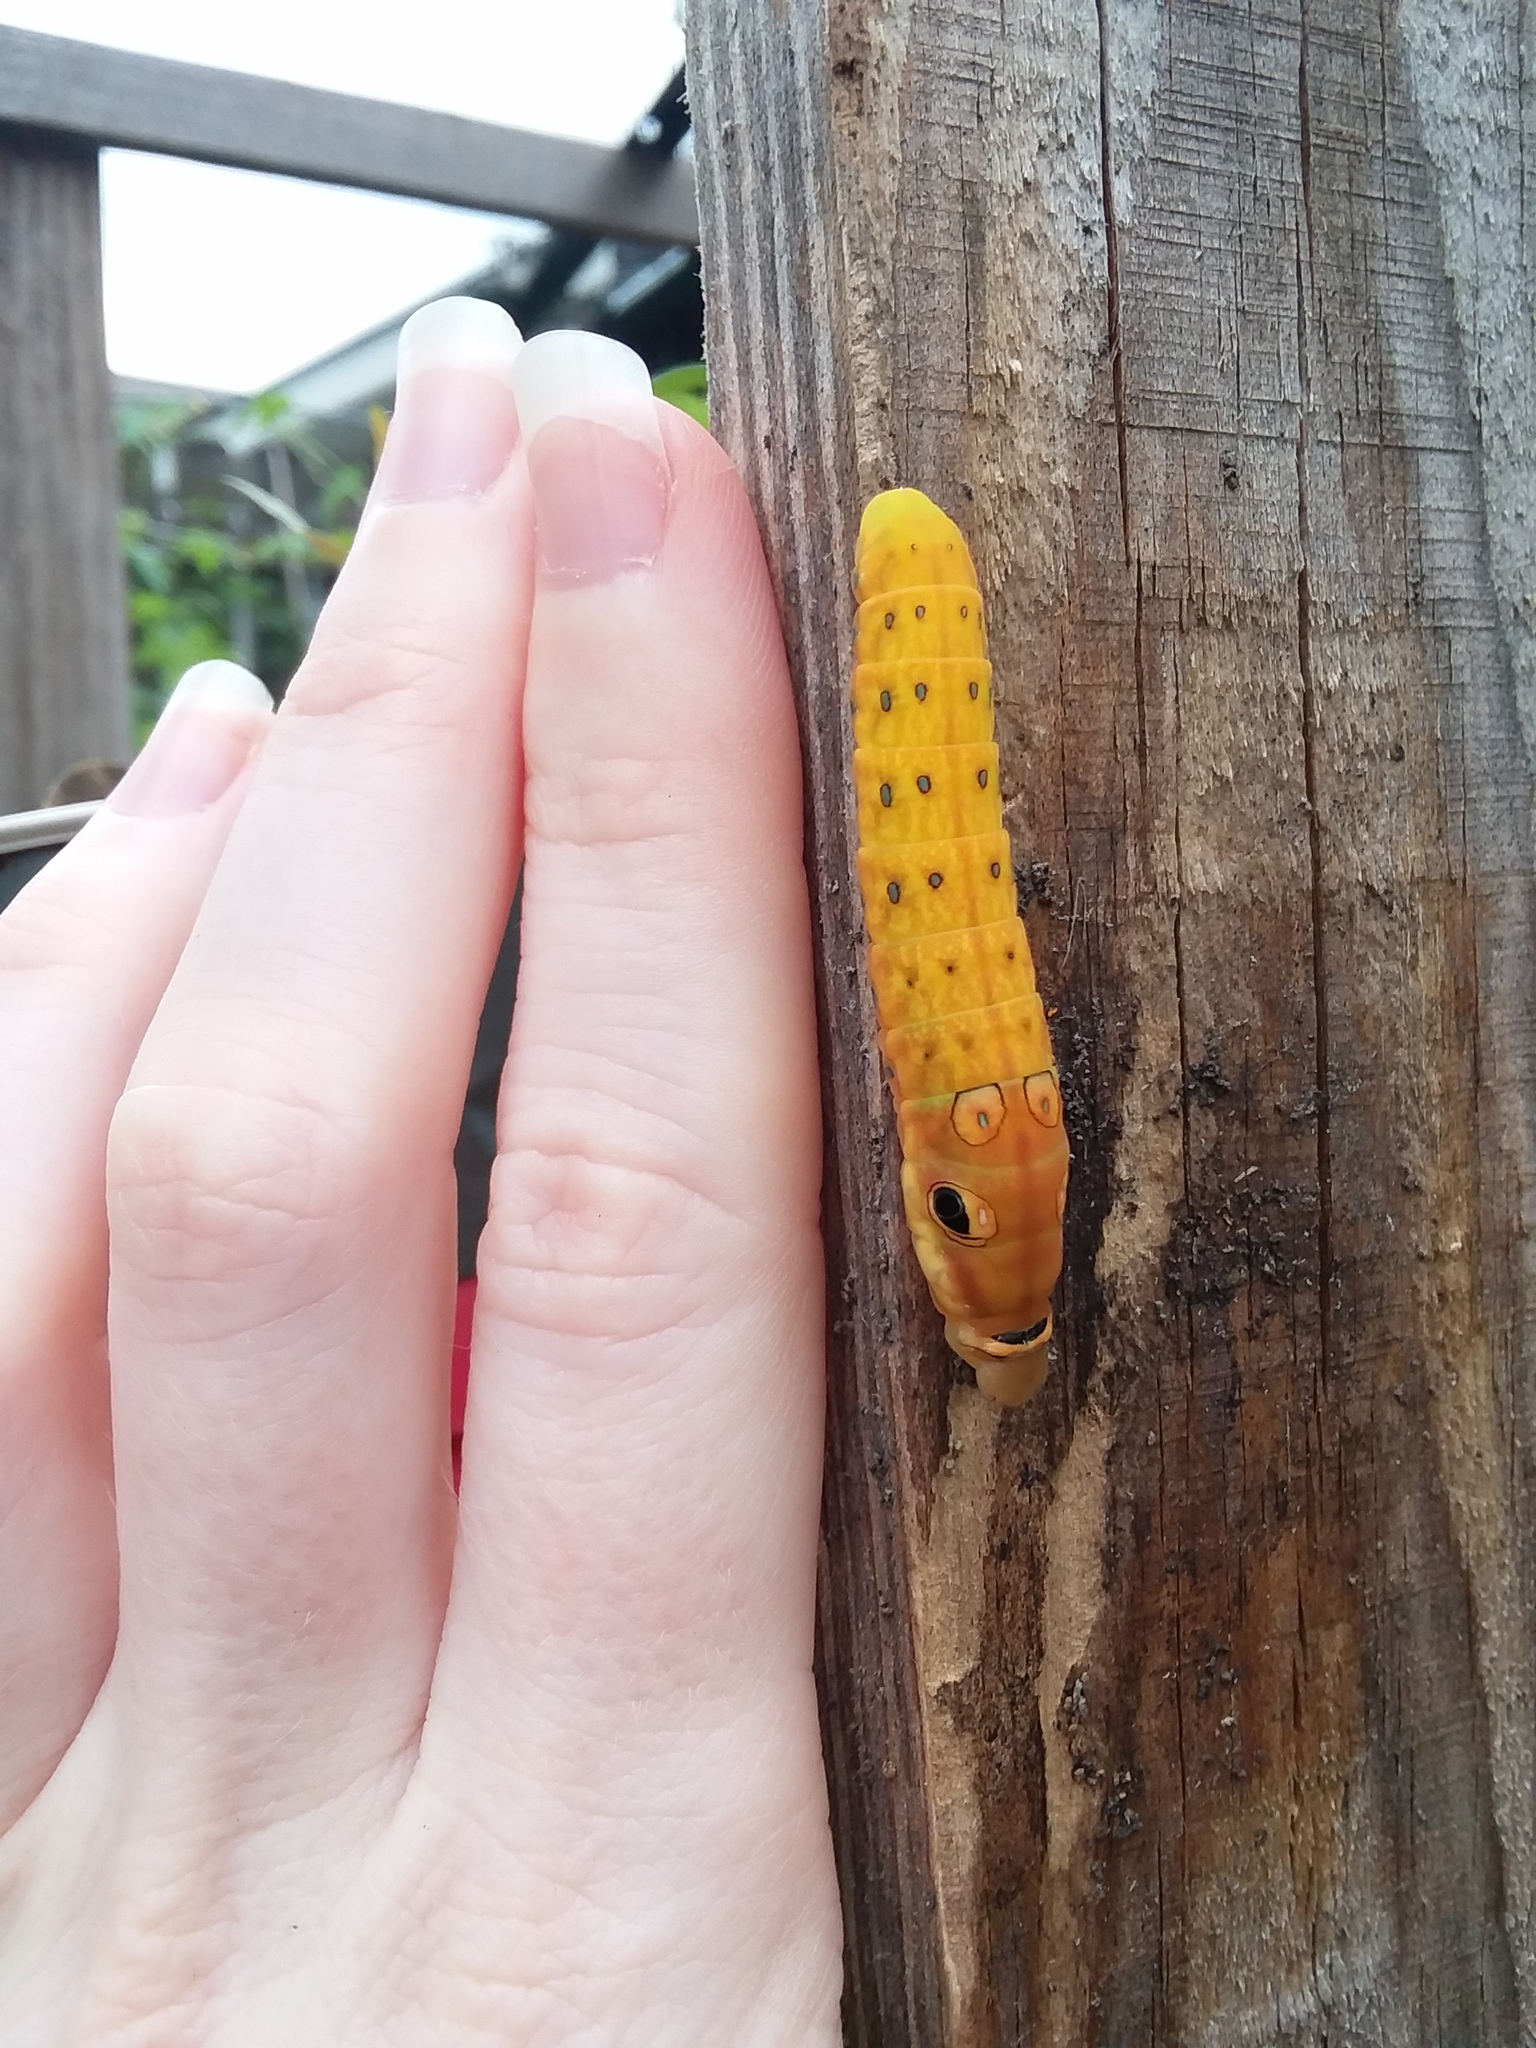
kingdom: Animalia
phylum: Arthropoda
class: Insecta
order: Lepidoptera
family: Papilionidae
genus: Papilio
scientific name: Papilio troilus
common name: Spicebush swallowtail
